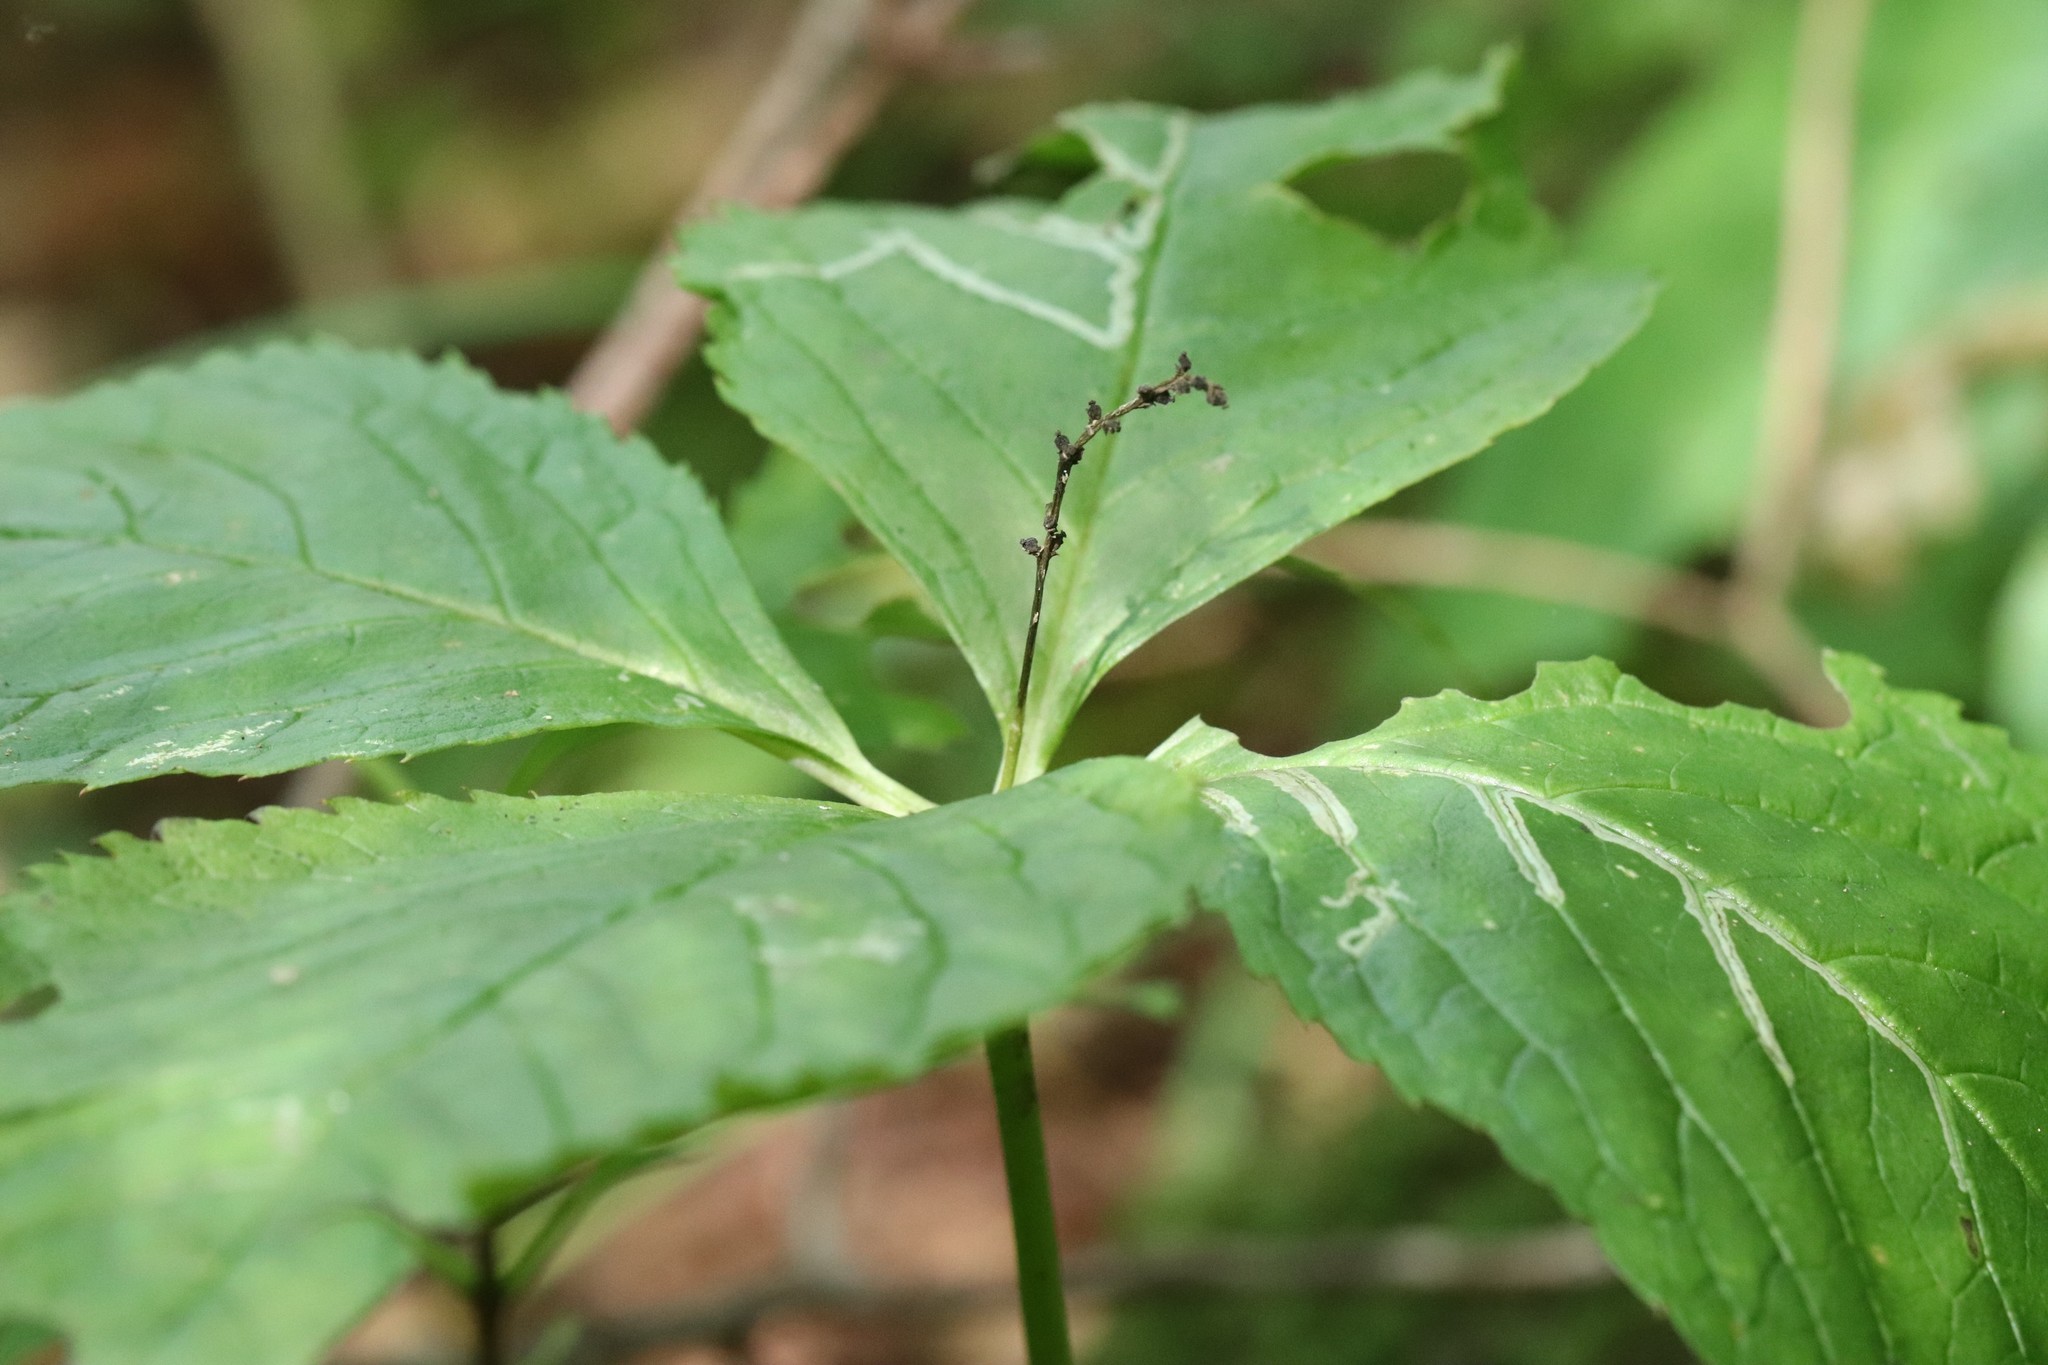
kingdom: Plantae
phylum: Tracheophyta
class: Magnoliopsida
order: Chloranthales
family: Chloranthaceae
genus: Chloranthus
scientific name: Chloranthus quadrifolius
